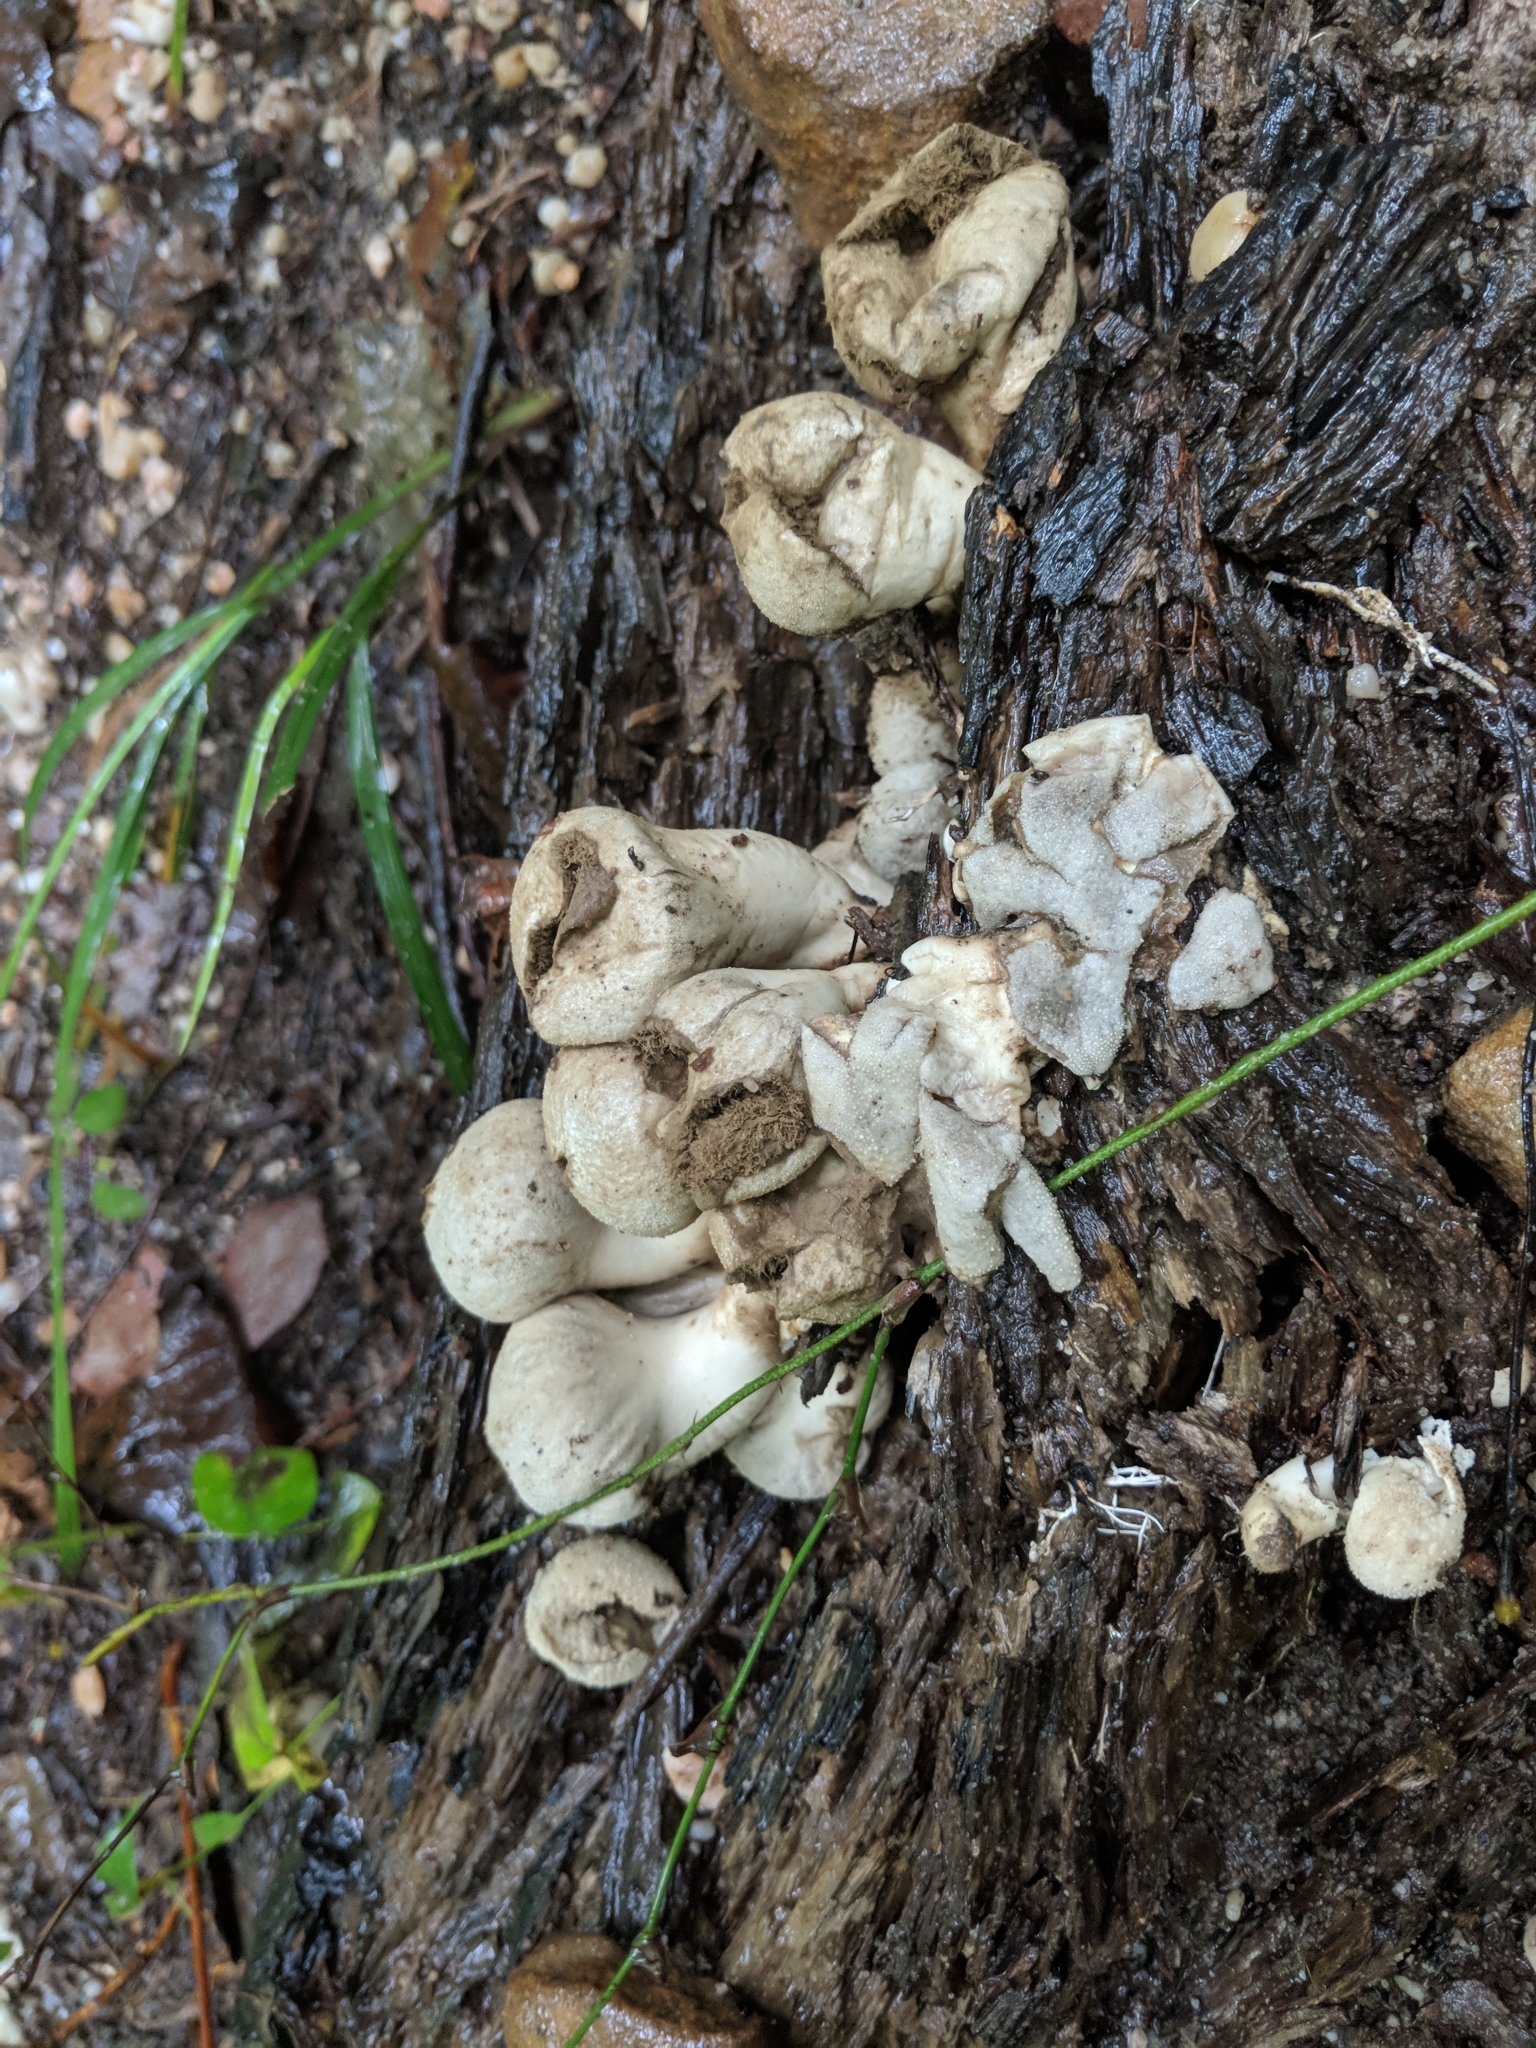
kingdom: Fungi
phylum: Basidiomycota
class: Agaricomycetes
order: Agaricales
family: Lycoperdaceae
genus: Apioperdon
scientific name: Apioperdon pyriforme
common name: Pear-shaped puffball
